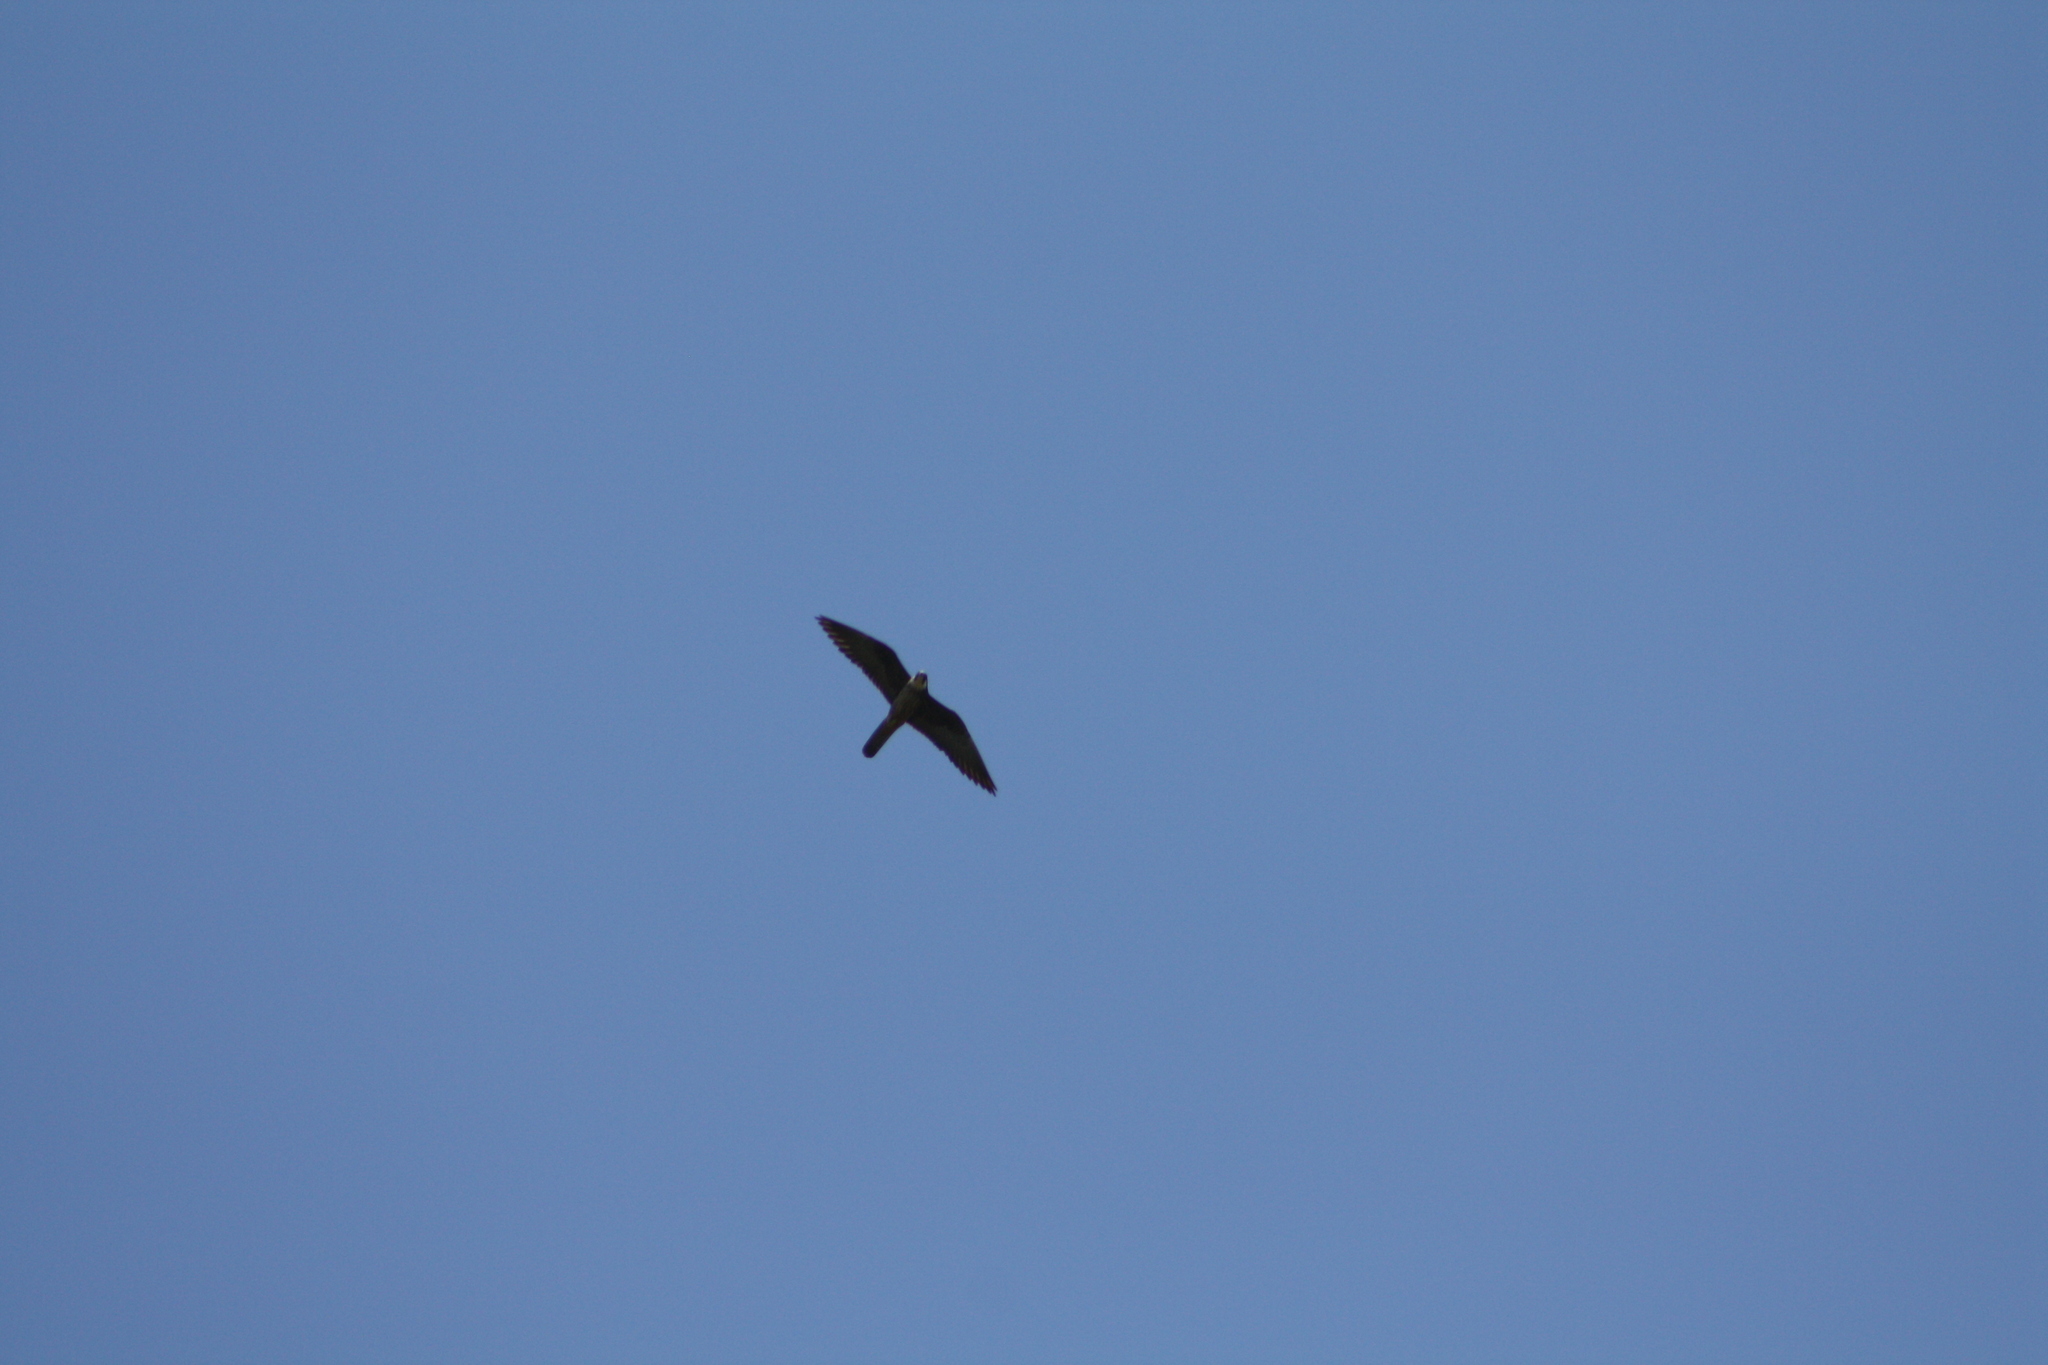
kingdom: Animalia
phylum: Chordata
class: Aves
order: Falconiformes
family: Falconidae
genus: Falco
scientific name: Falco eleonorae
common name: Eleonora's falcon
